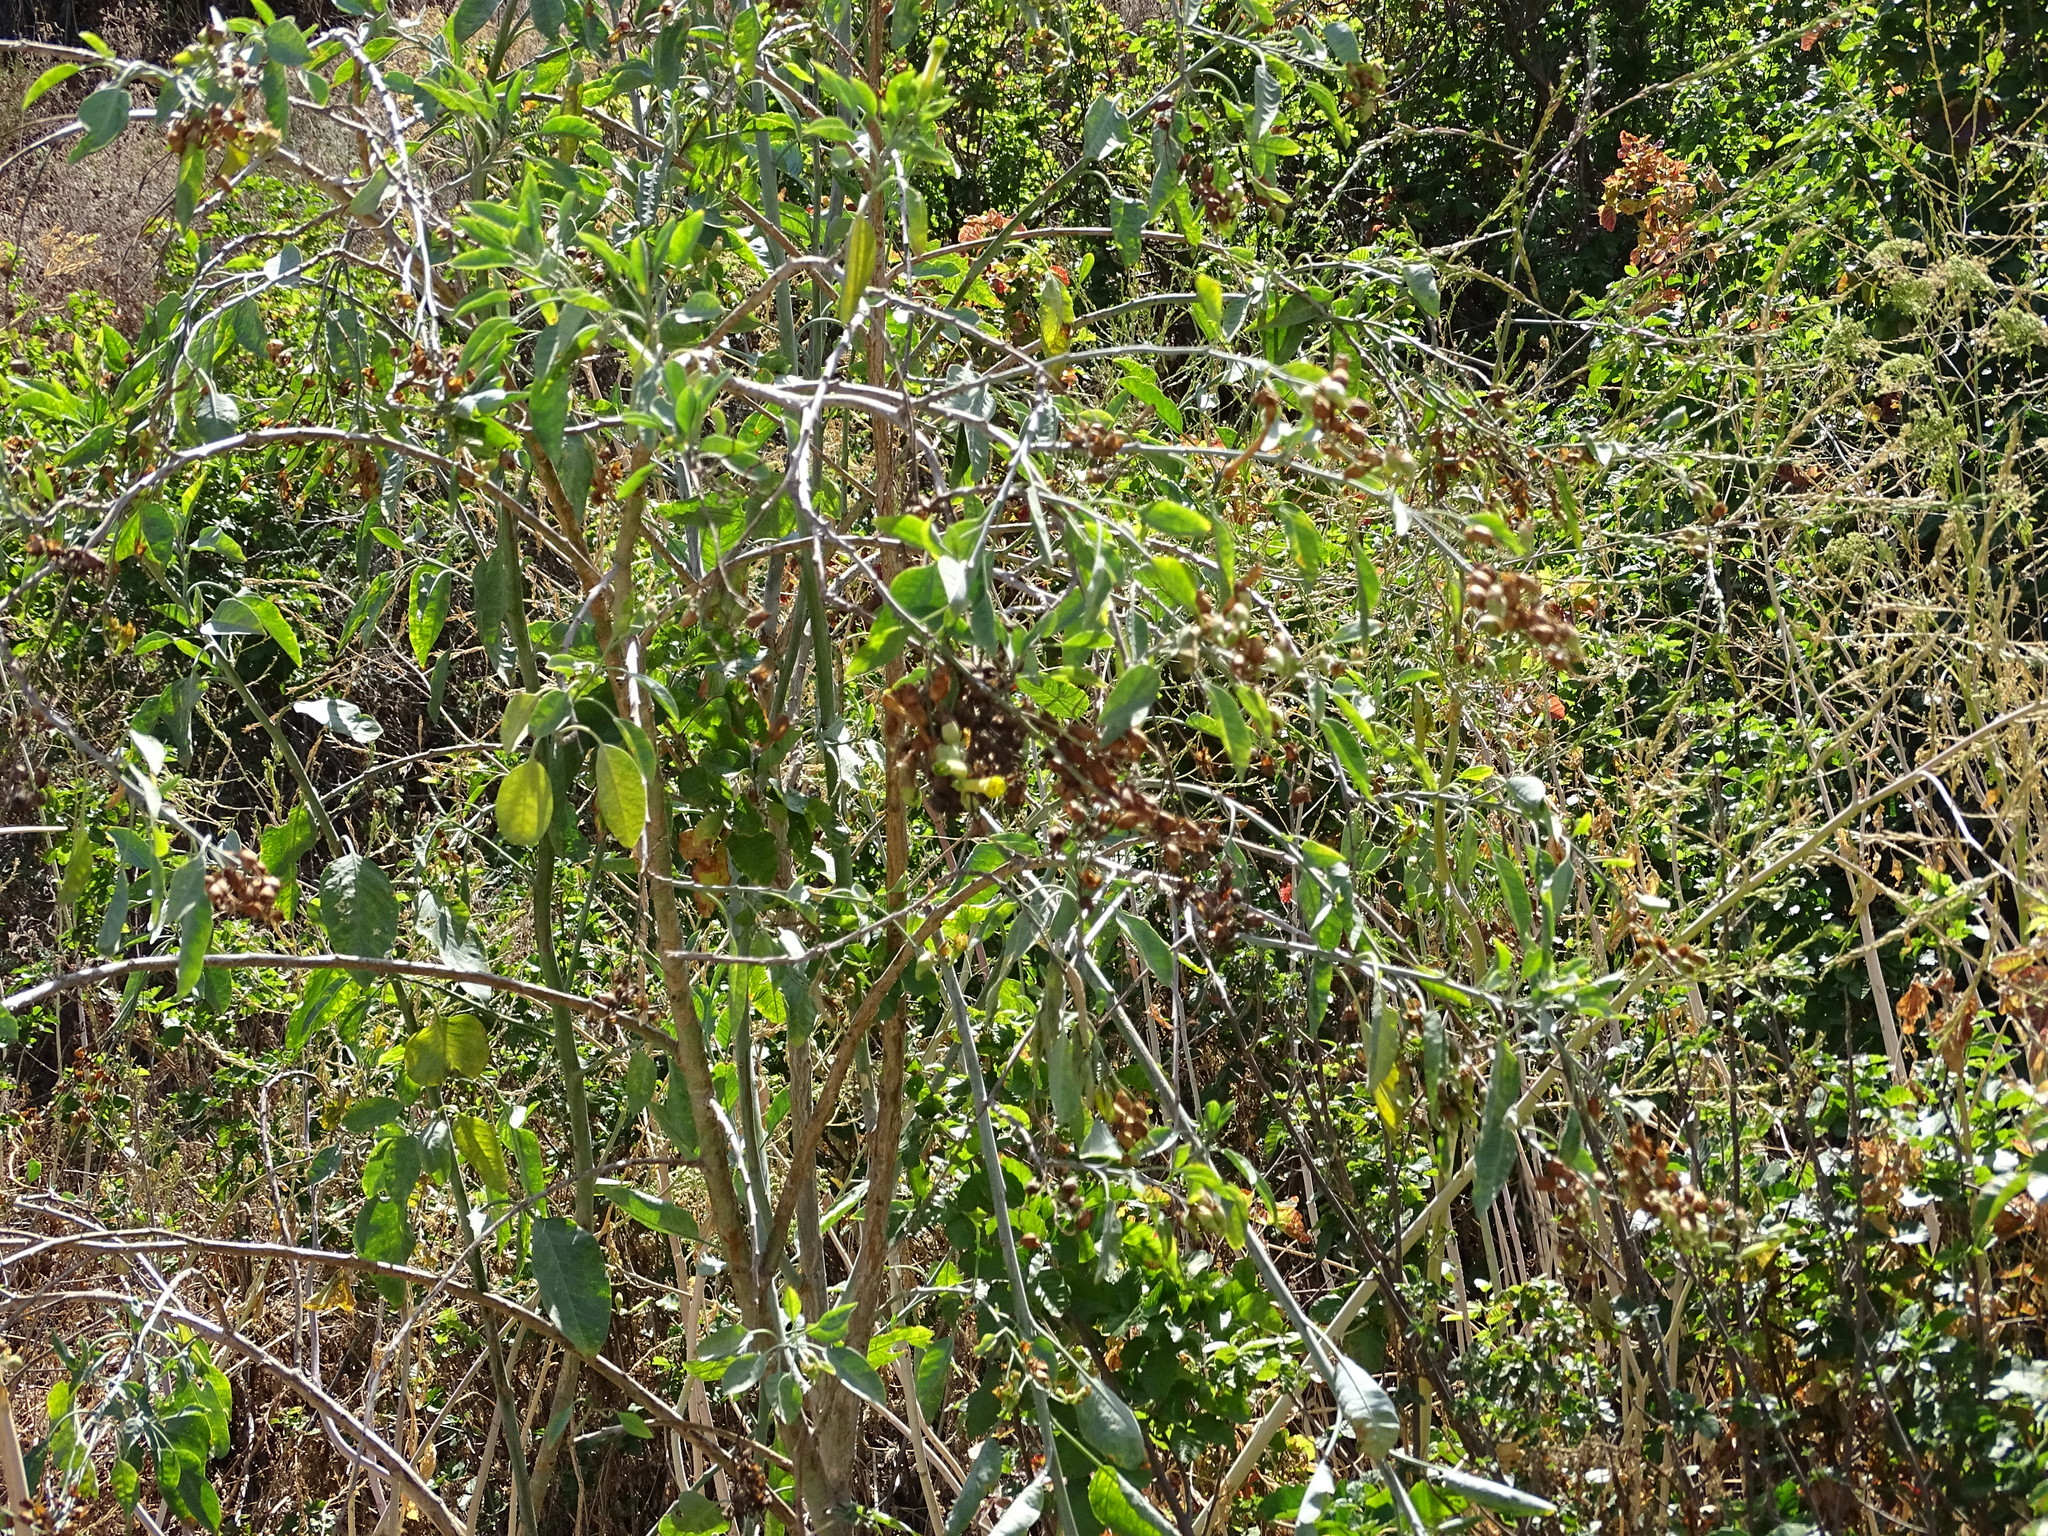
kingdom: Plantae
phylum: Tracheophyta
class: Magnoliopsida
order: Solanales
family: Solanaceae
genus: Nicotiana
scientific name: Nicotiana glauca
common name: Tree tobacco
